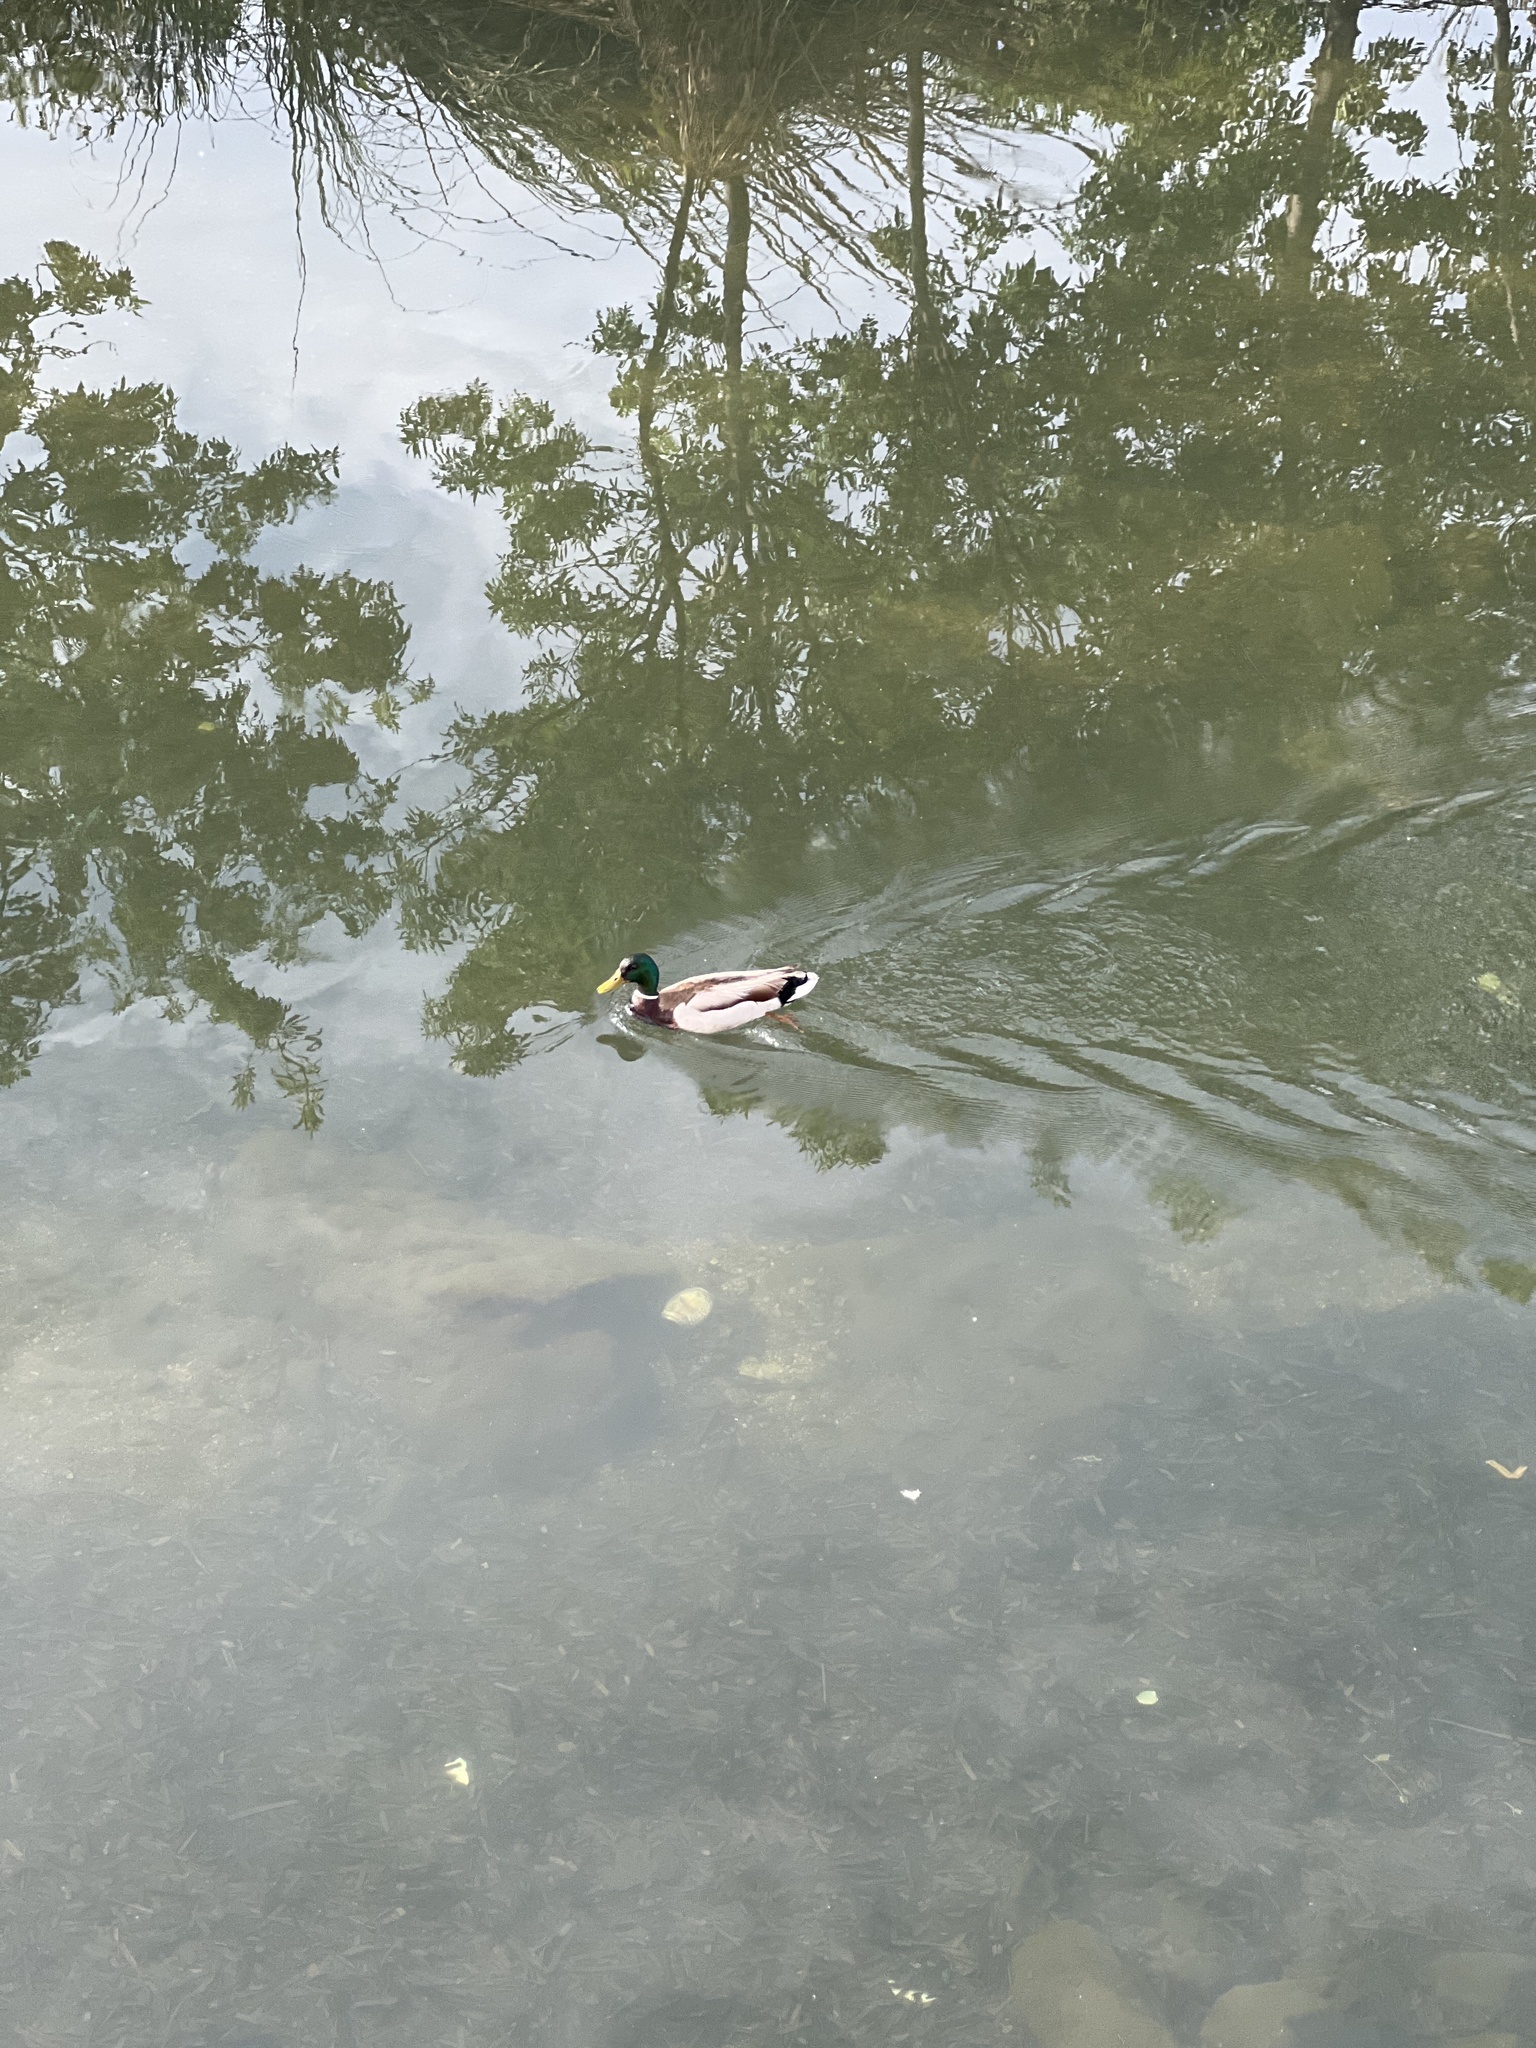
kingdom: Animalia
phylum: Chordata
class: Aves
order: Anseriformes
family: Anatidae
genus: Anas
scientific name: Anas platyrhynchos
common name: Mallard
